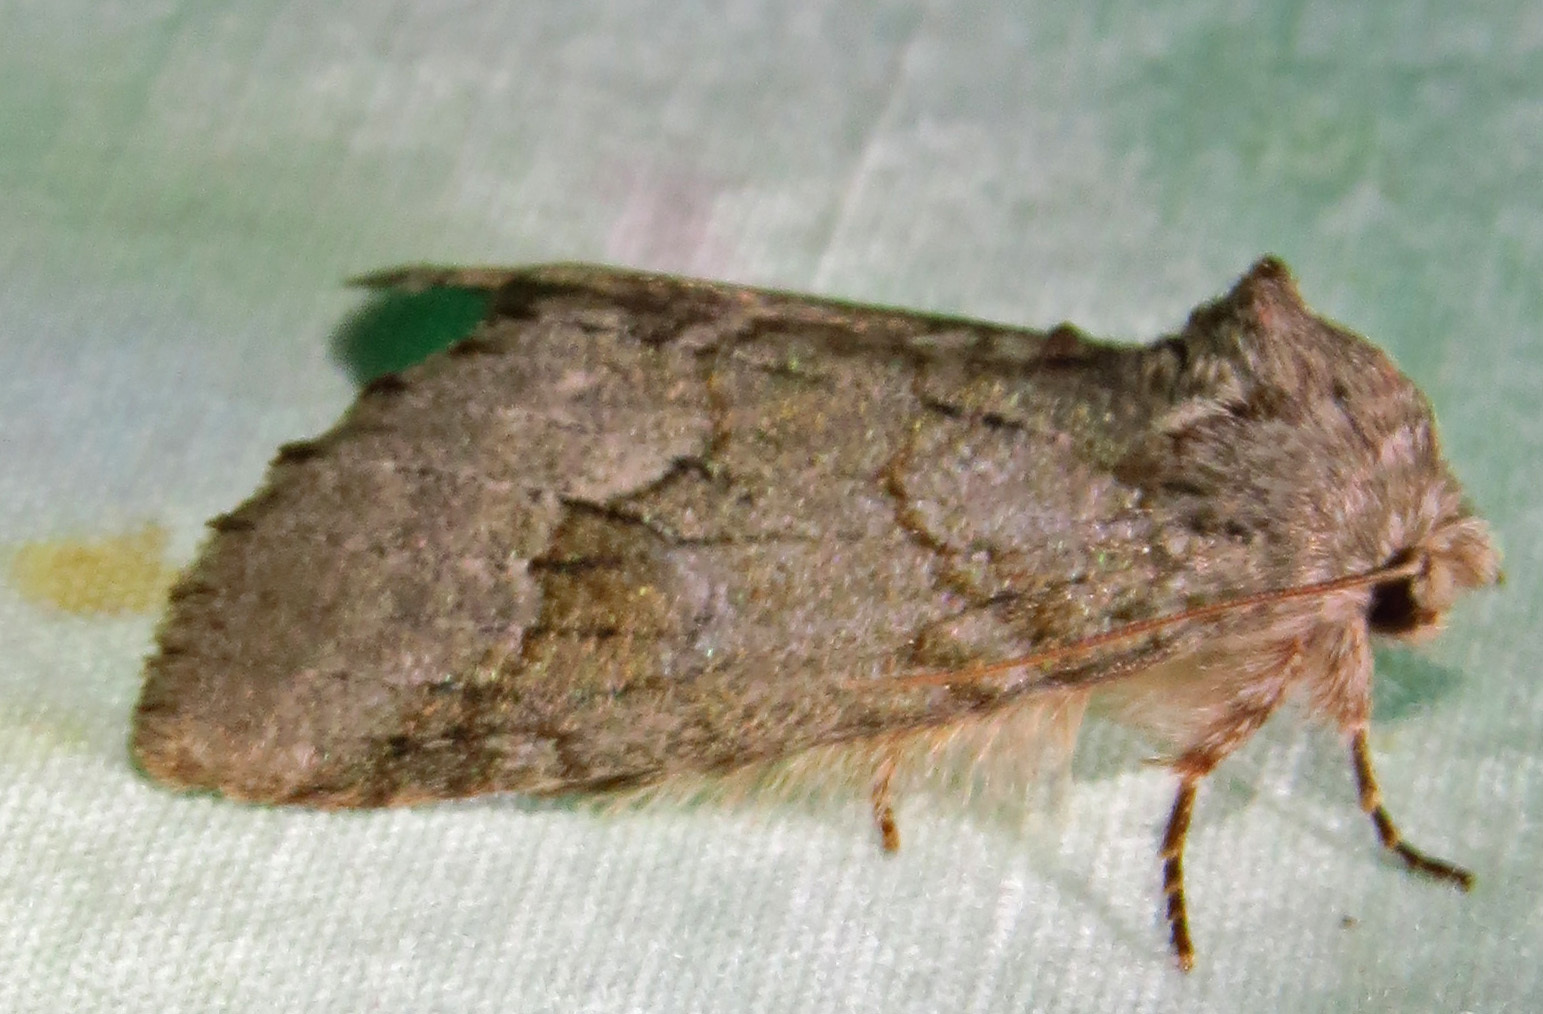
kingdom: Animalia
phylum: Arthropoda
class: Insecta
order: Lepidoptera
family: Notodontidae
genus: Lochmaeus
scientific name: Lochmaeus bilineata
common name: Double-lined prominent
